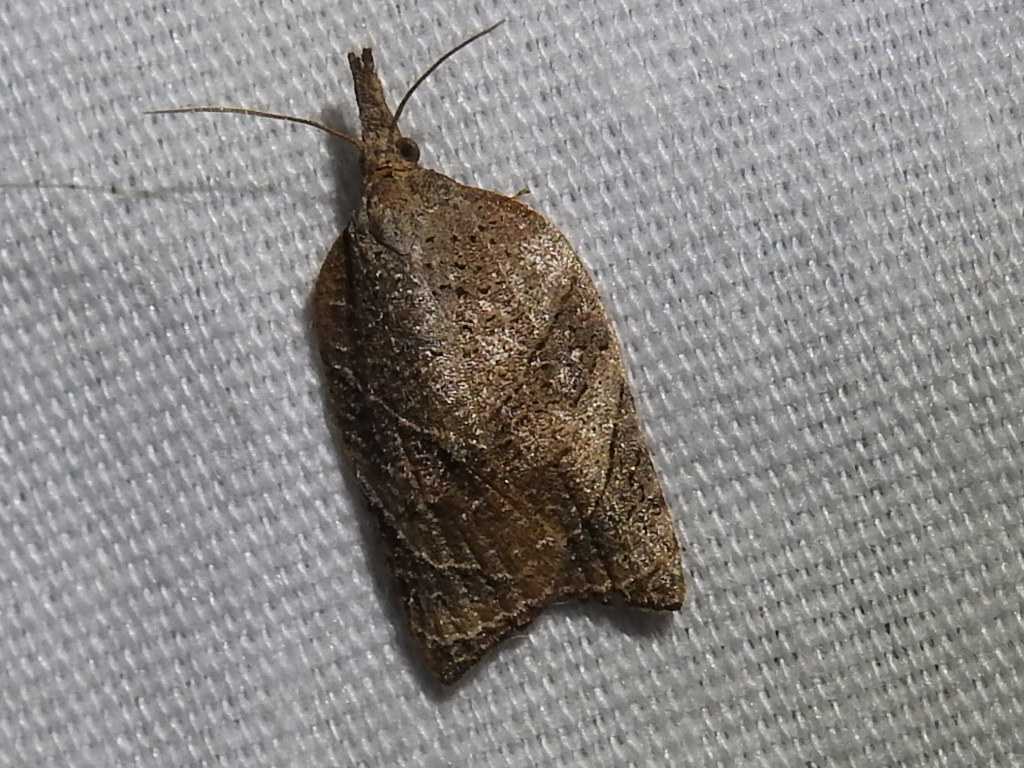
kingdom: Animalia
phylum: Arthropoda
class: Insecta
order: Lepidoptera
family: Tortricidae
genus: Platynota
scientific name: Platynota rostrana
